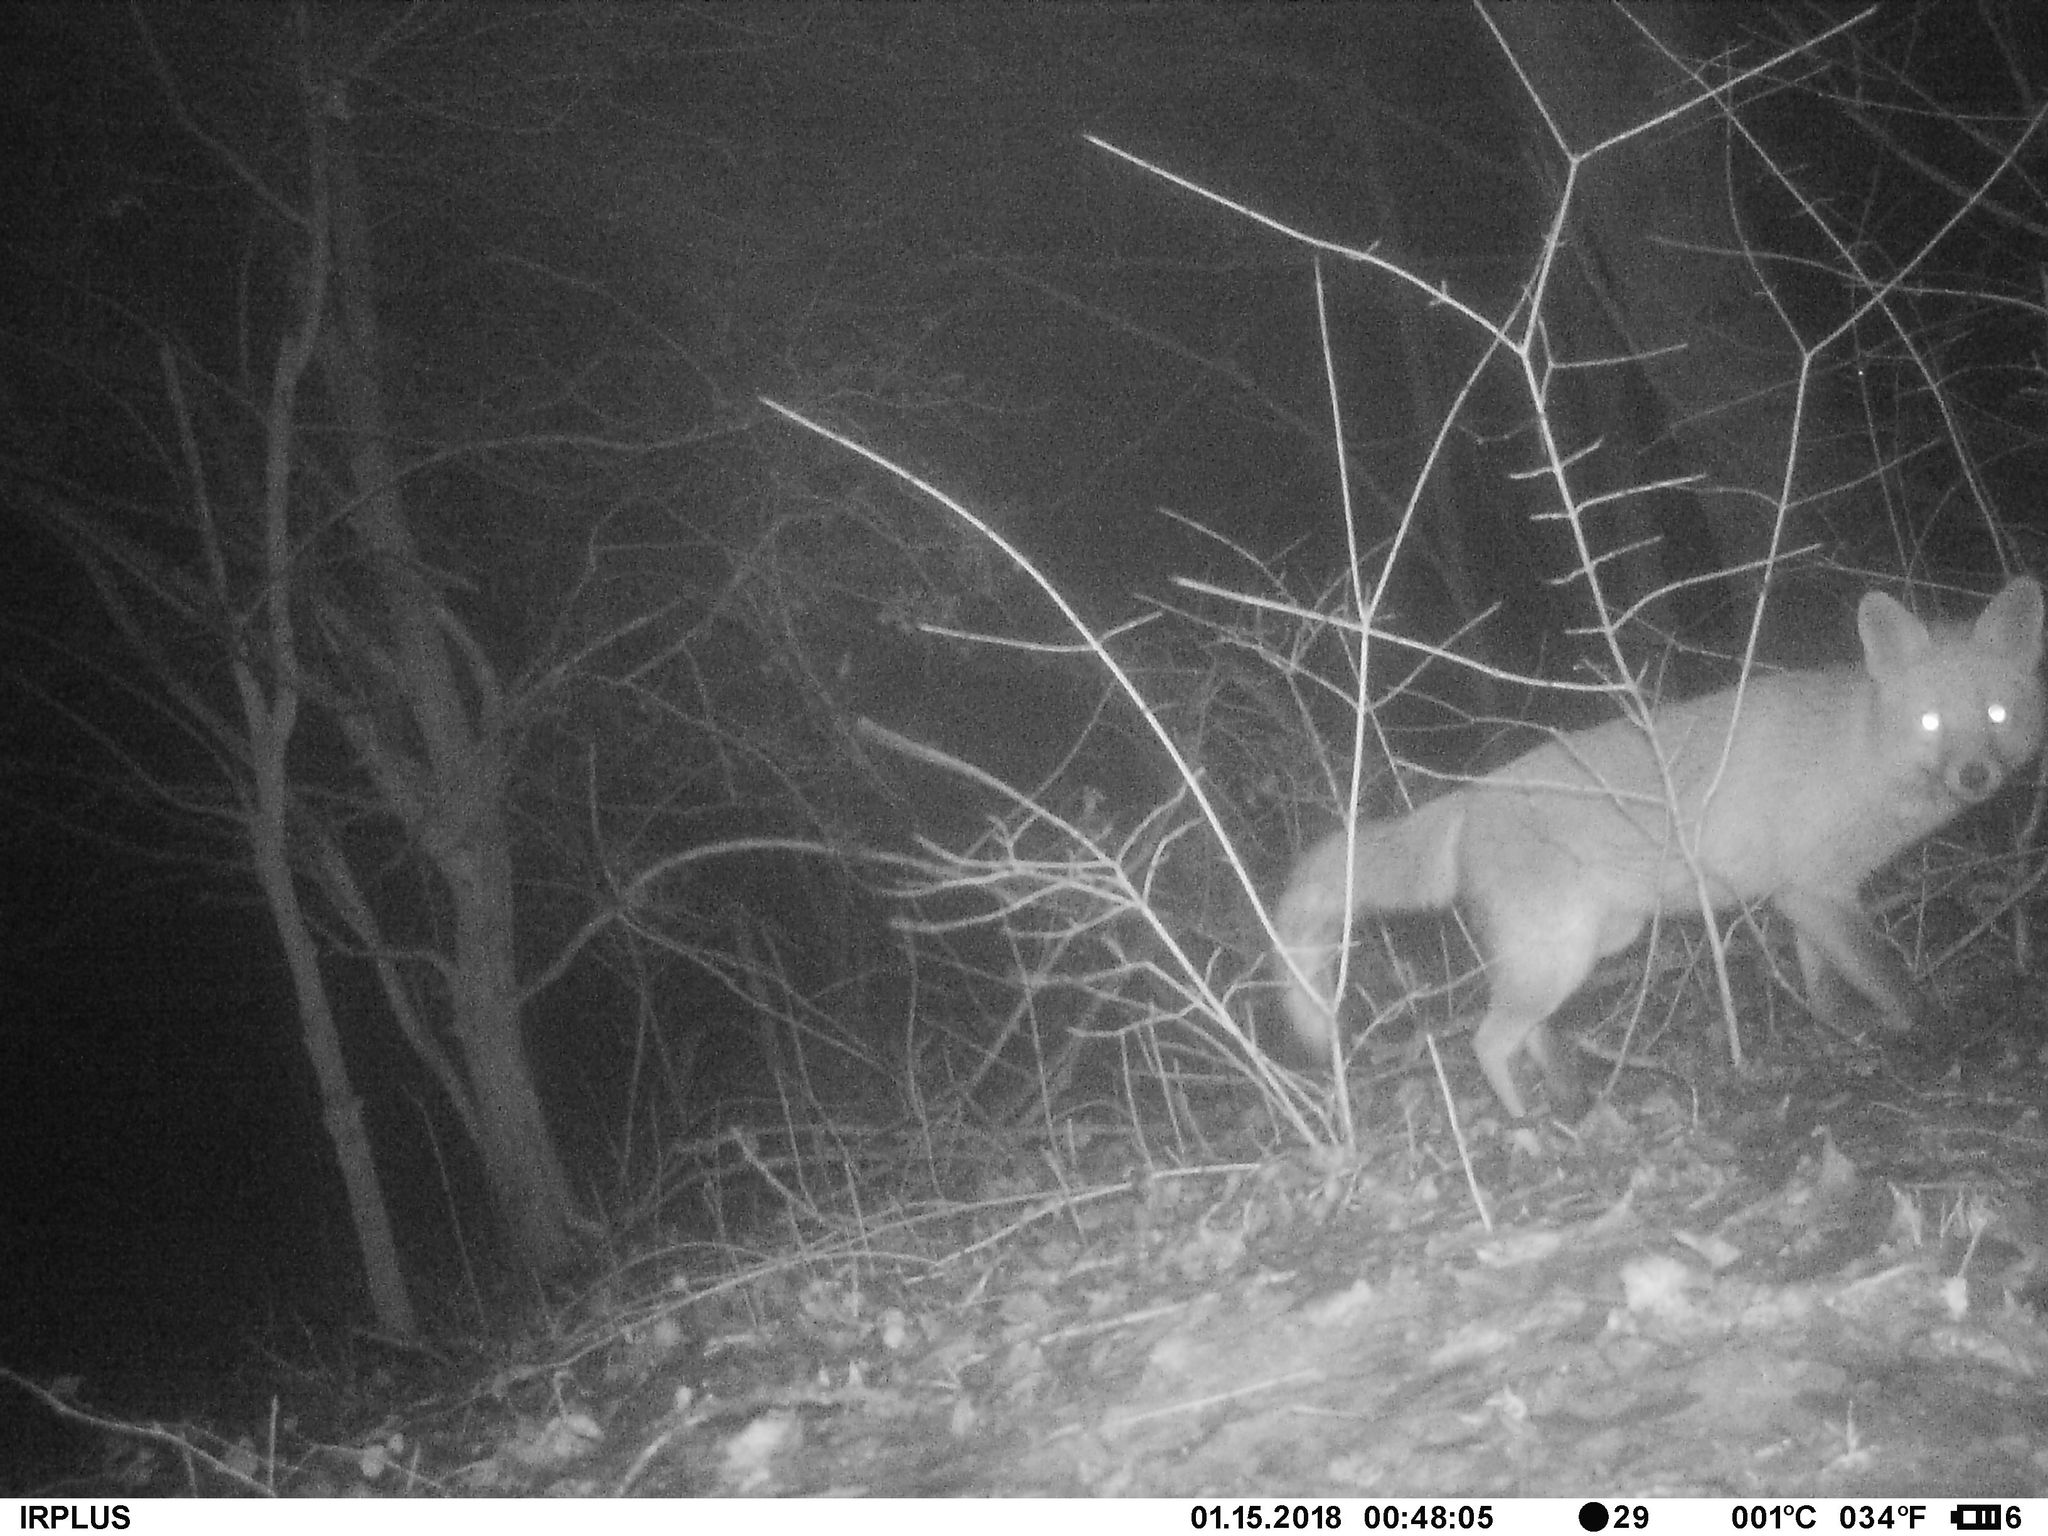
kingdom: Animalia
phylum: Chordata
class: Mammalia
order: Carnivora
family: Canidae
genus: Vulpes
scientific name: Vulpes vulpes
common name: Red fox
